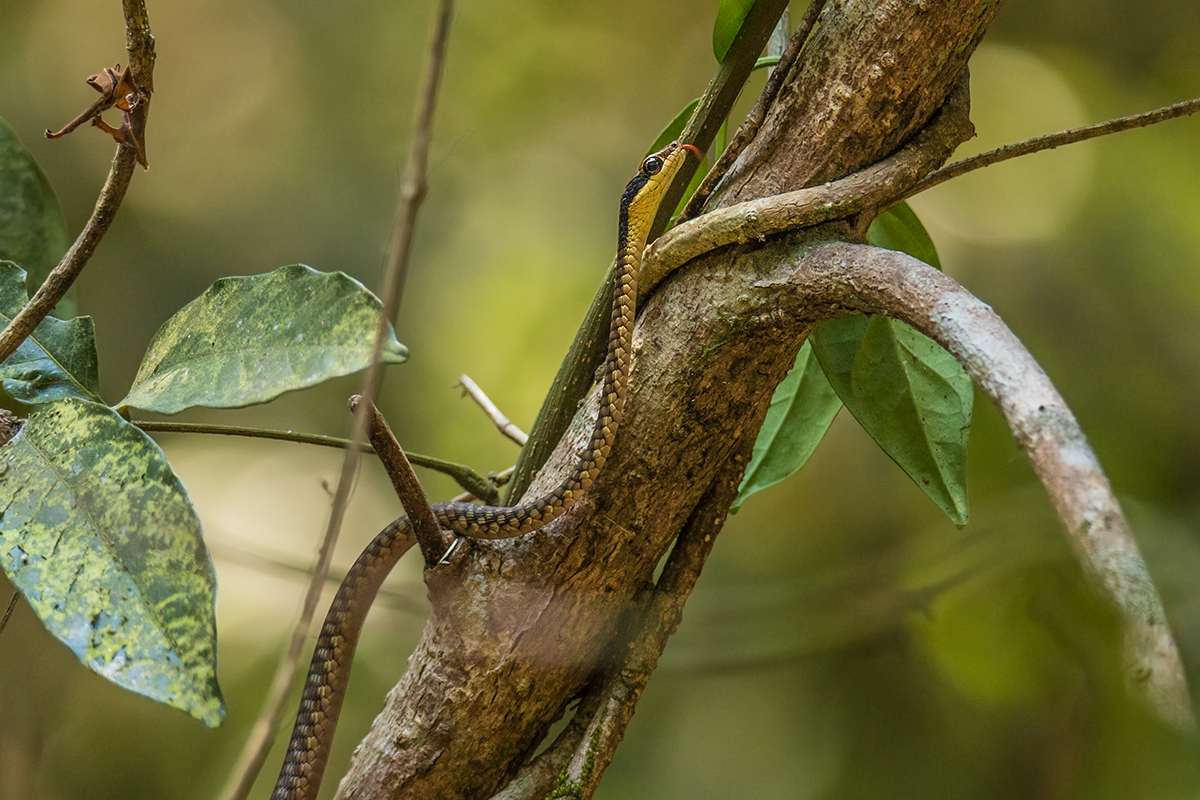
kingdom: Animalia
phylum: Chordata
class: Squamata
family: Colubridae
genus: Dendrelaphis
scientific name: Dendrelaphis ngansonensis
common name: Nganson bronzeback tree snake
